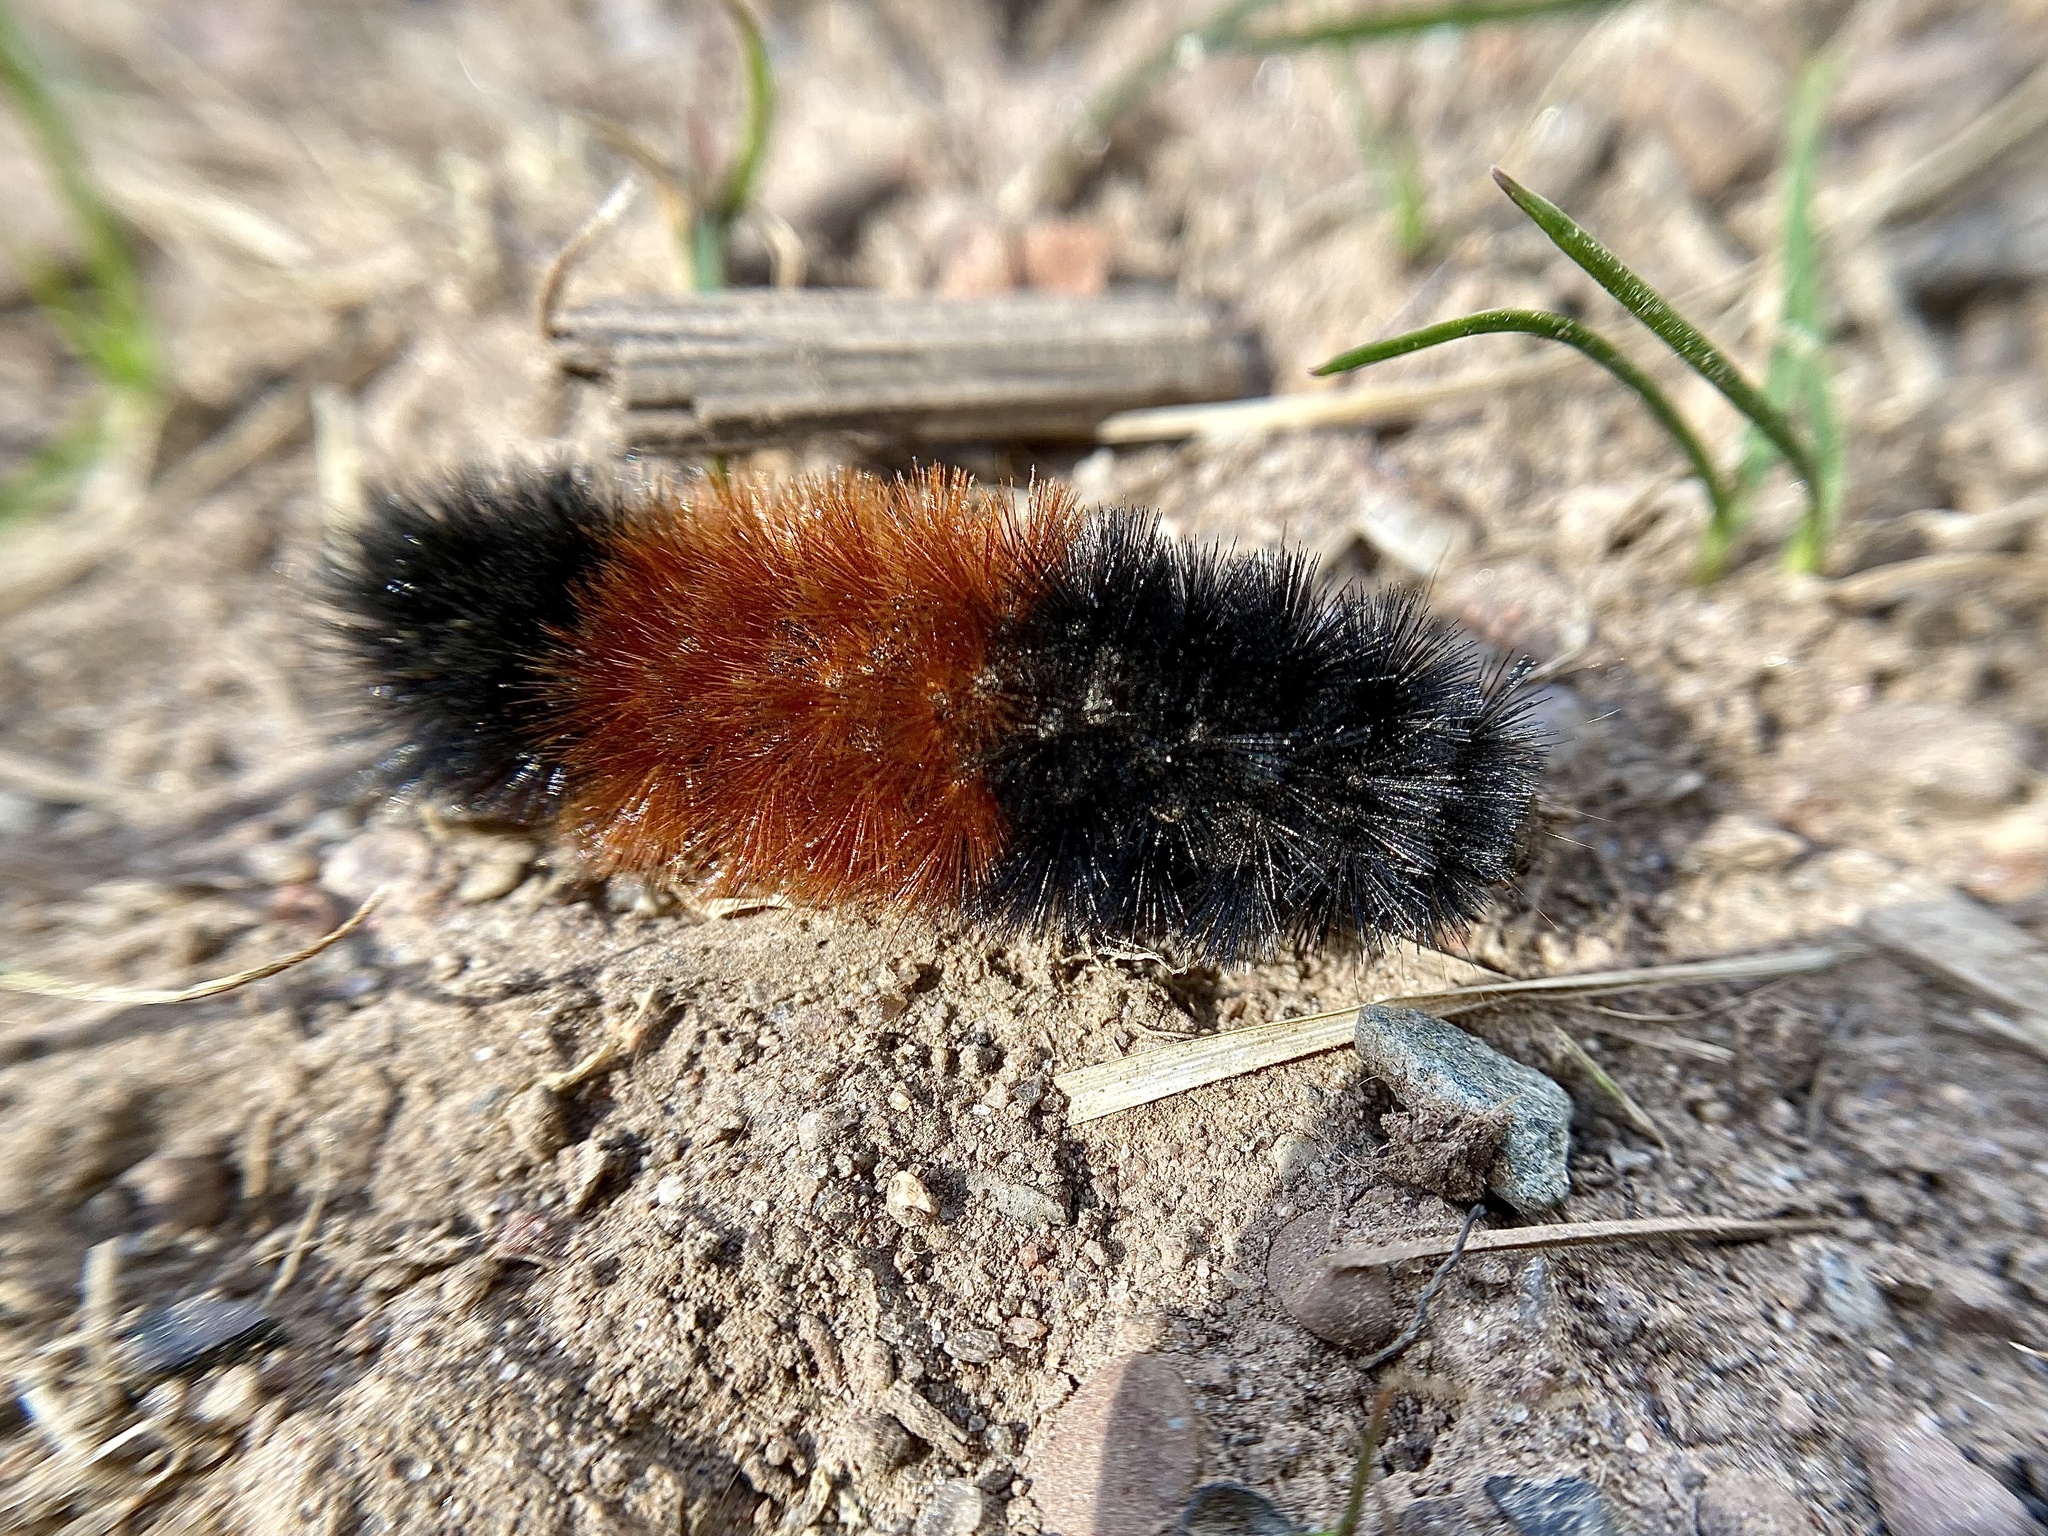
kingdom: Animalia
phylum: Arthropoda
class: Insecta
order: Lepidoptera
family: Erebidae
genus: Pyrrharctia
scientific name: Pyrrharctia isabella
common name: Isabella tiger moth
